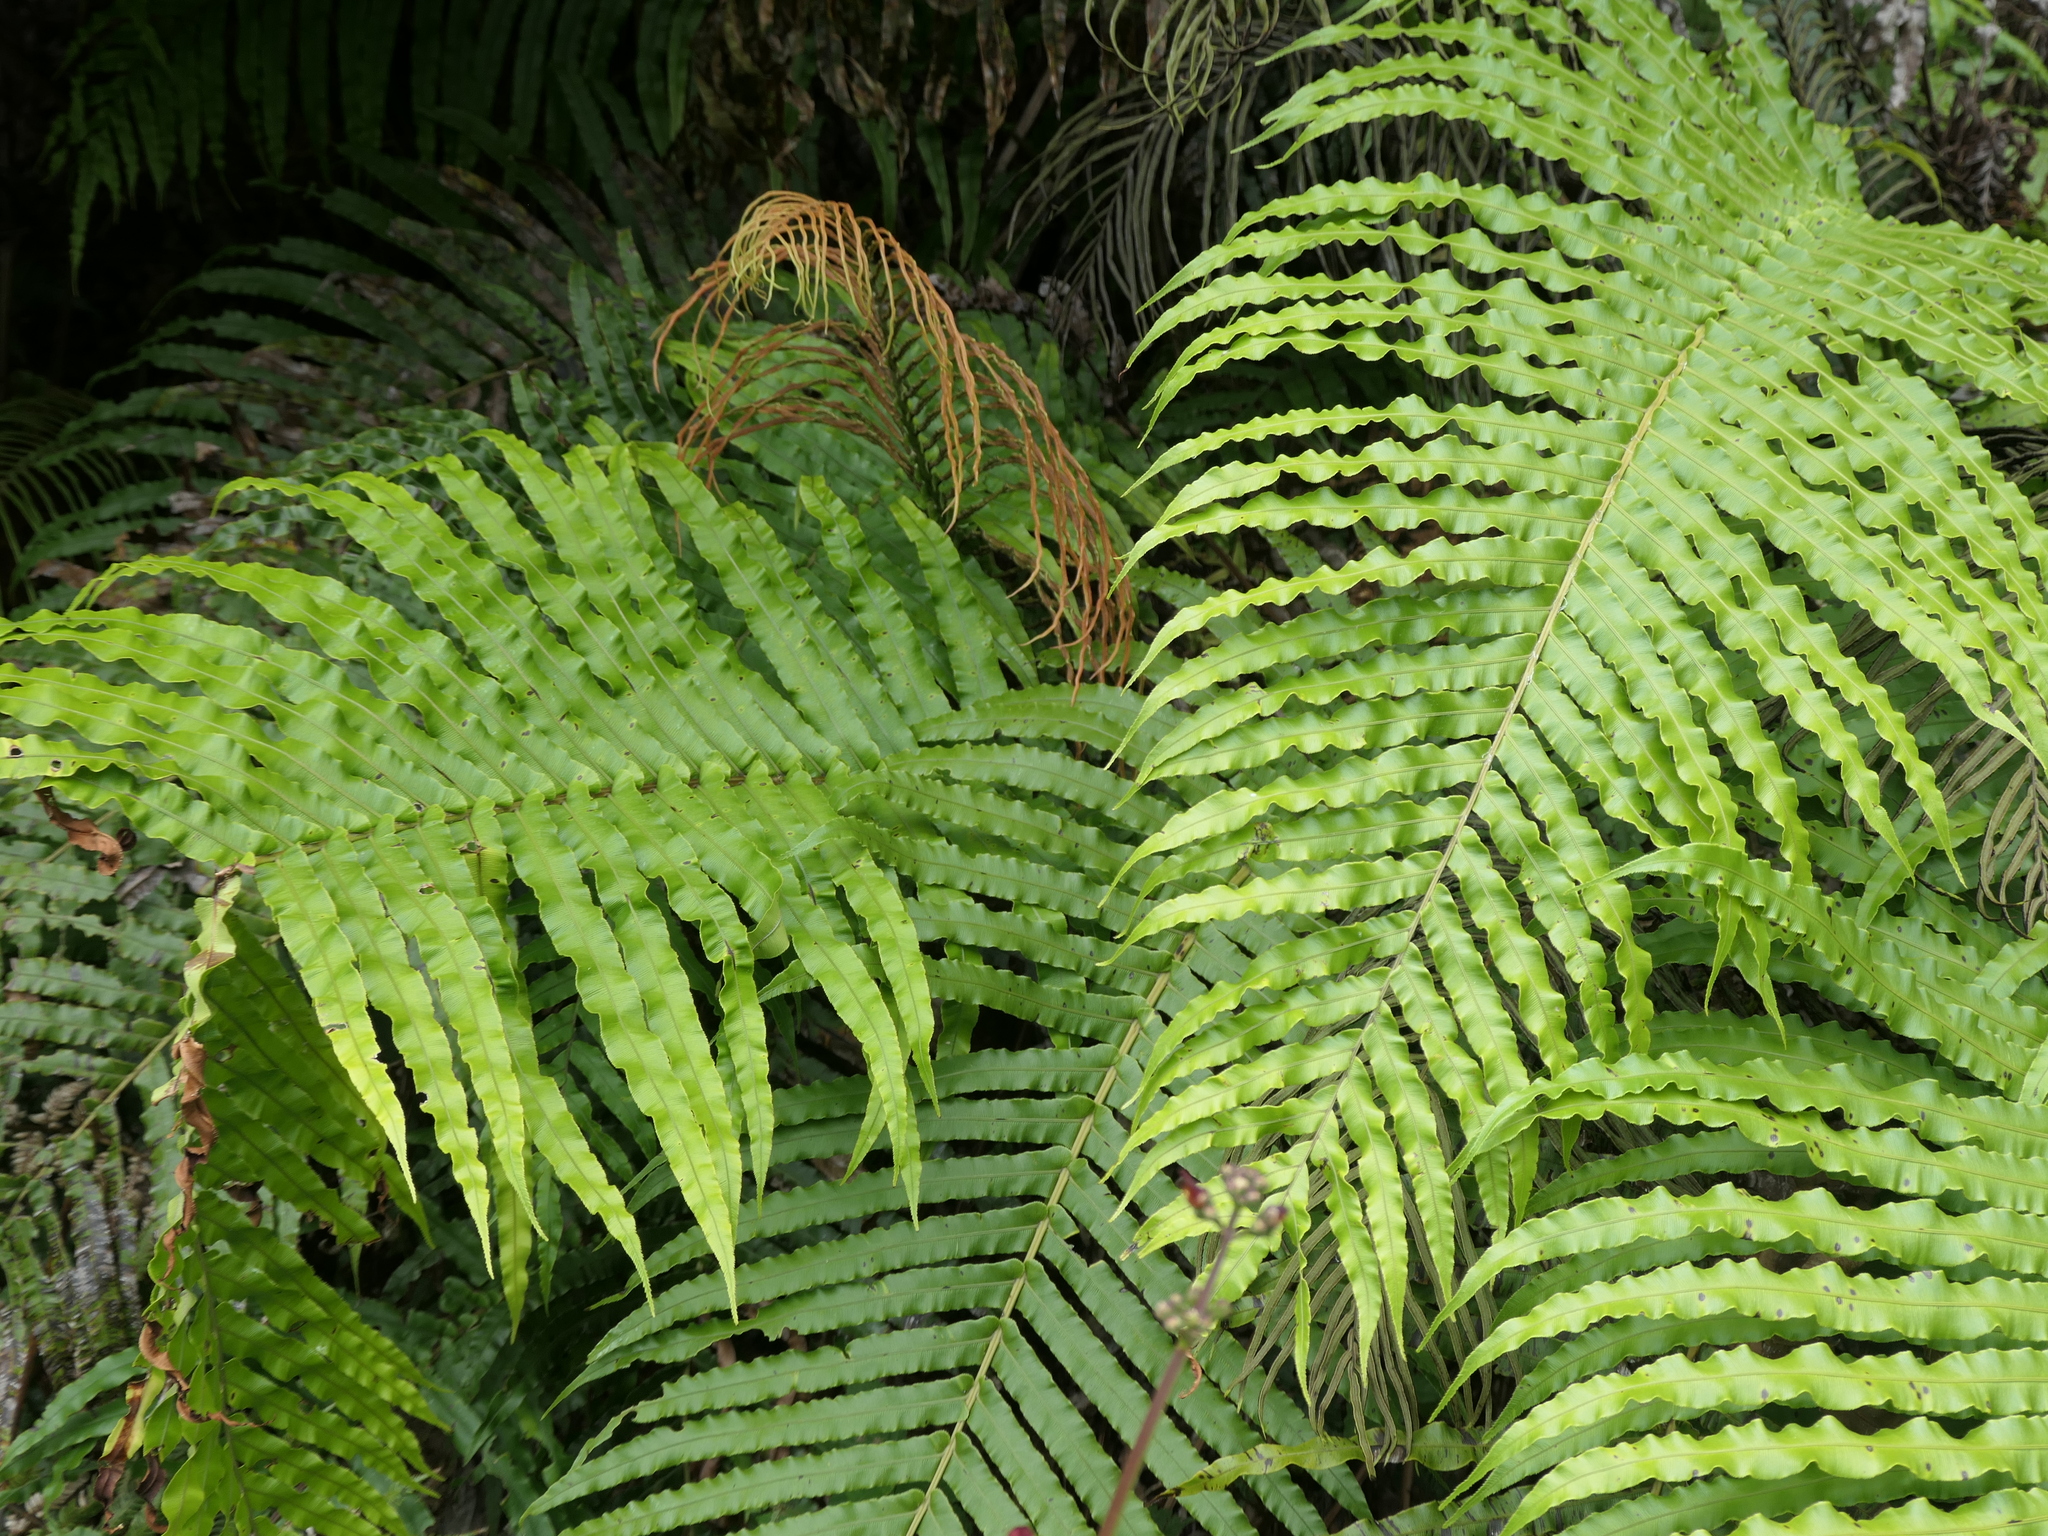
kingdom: Plantae
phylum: Tracheophyta
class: Polypodiopsida
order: Polypodiales
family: Blechnaceae
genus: Parablechnum
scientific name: Parablechnum novae-zelandiae
